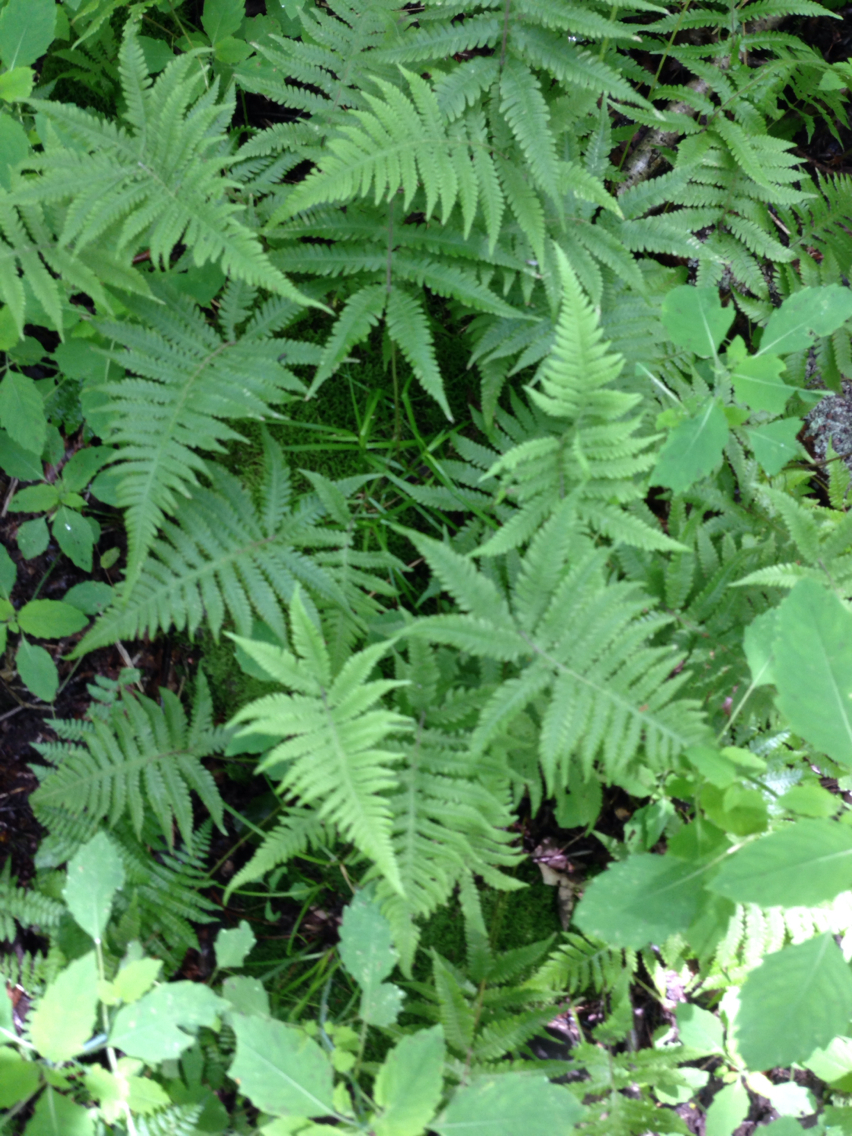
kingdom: Plantae
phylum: Tracheophyta
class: Polypodiopsida
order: Polypodiales
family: Thelypteridaceae
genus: Phegopteris
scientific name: Phegopteris connectilis
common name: Beech fern
